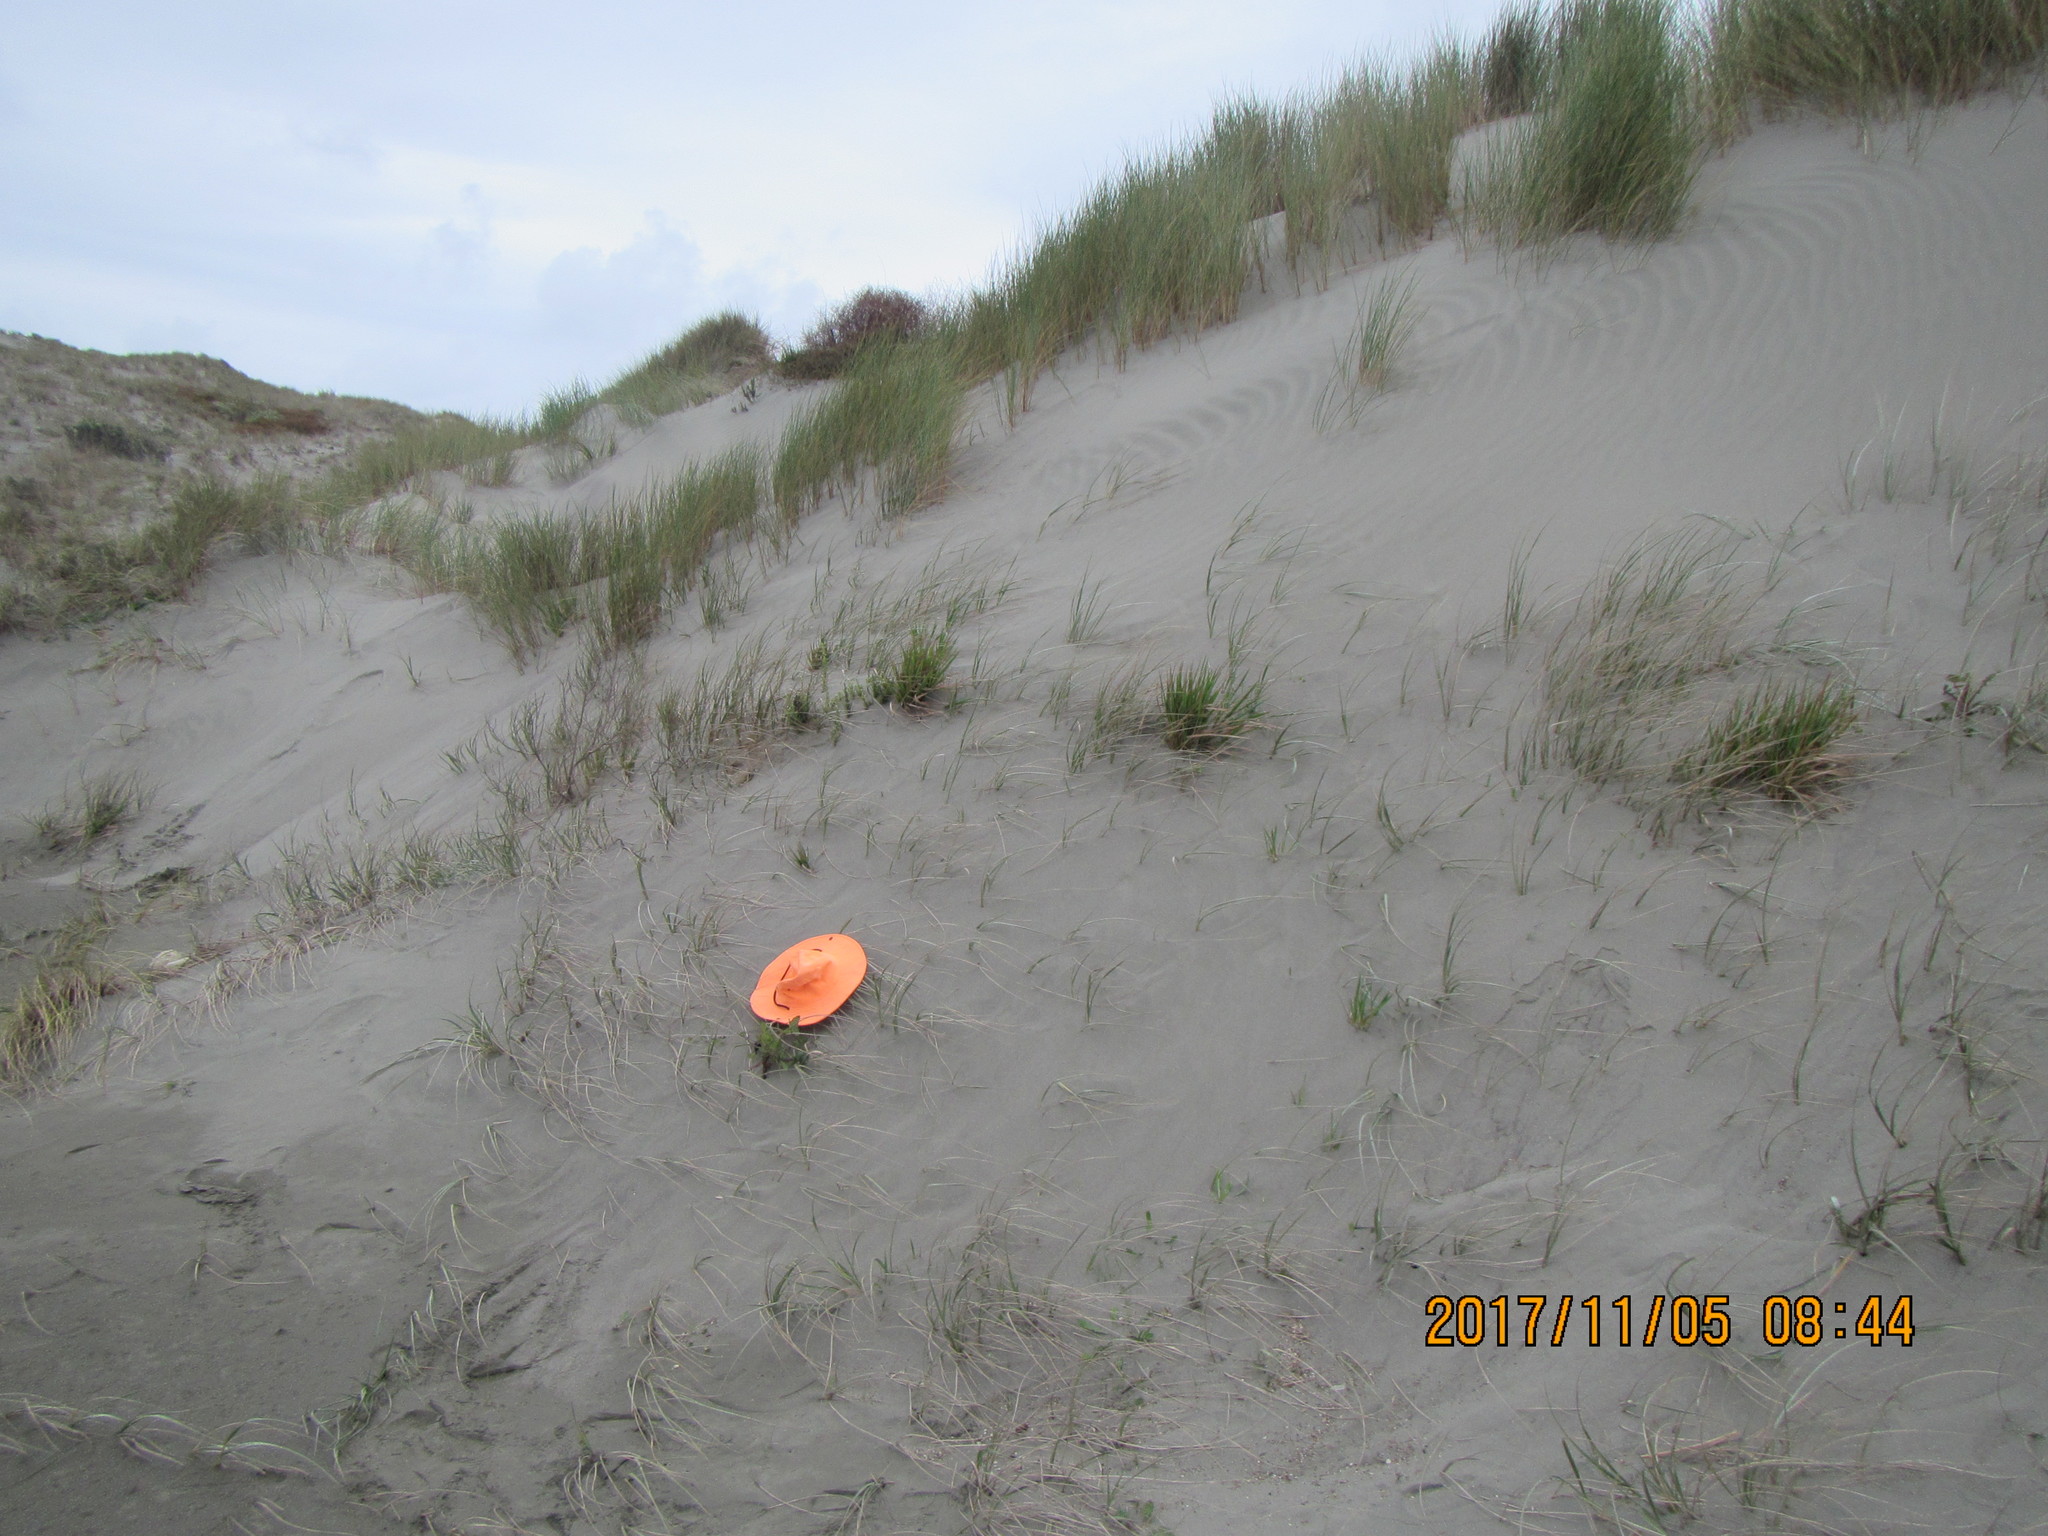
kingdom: Plantae
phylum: Tracheophyta
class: Magnoliopsida
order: Asterales
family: Asteraceae
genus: Sonchus
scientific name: Sonchus oleraceus
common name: Common sowthistle
